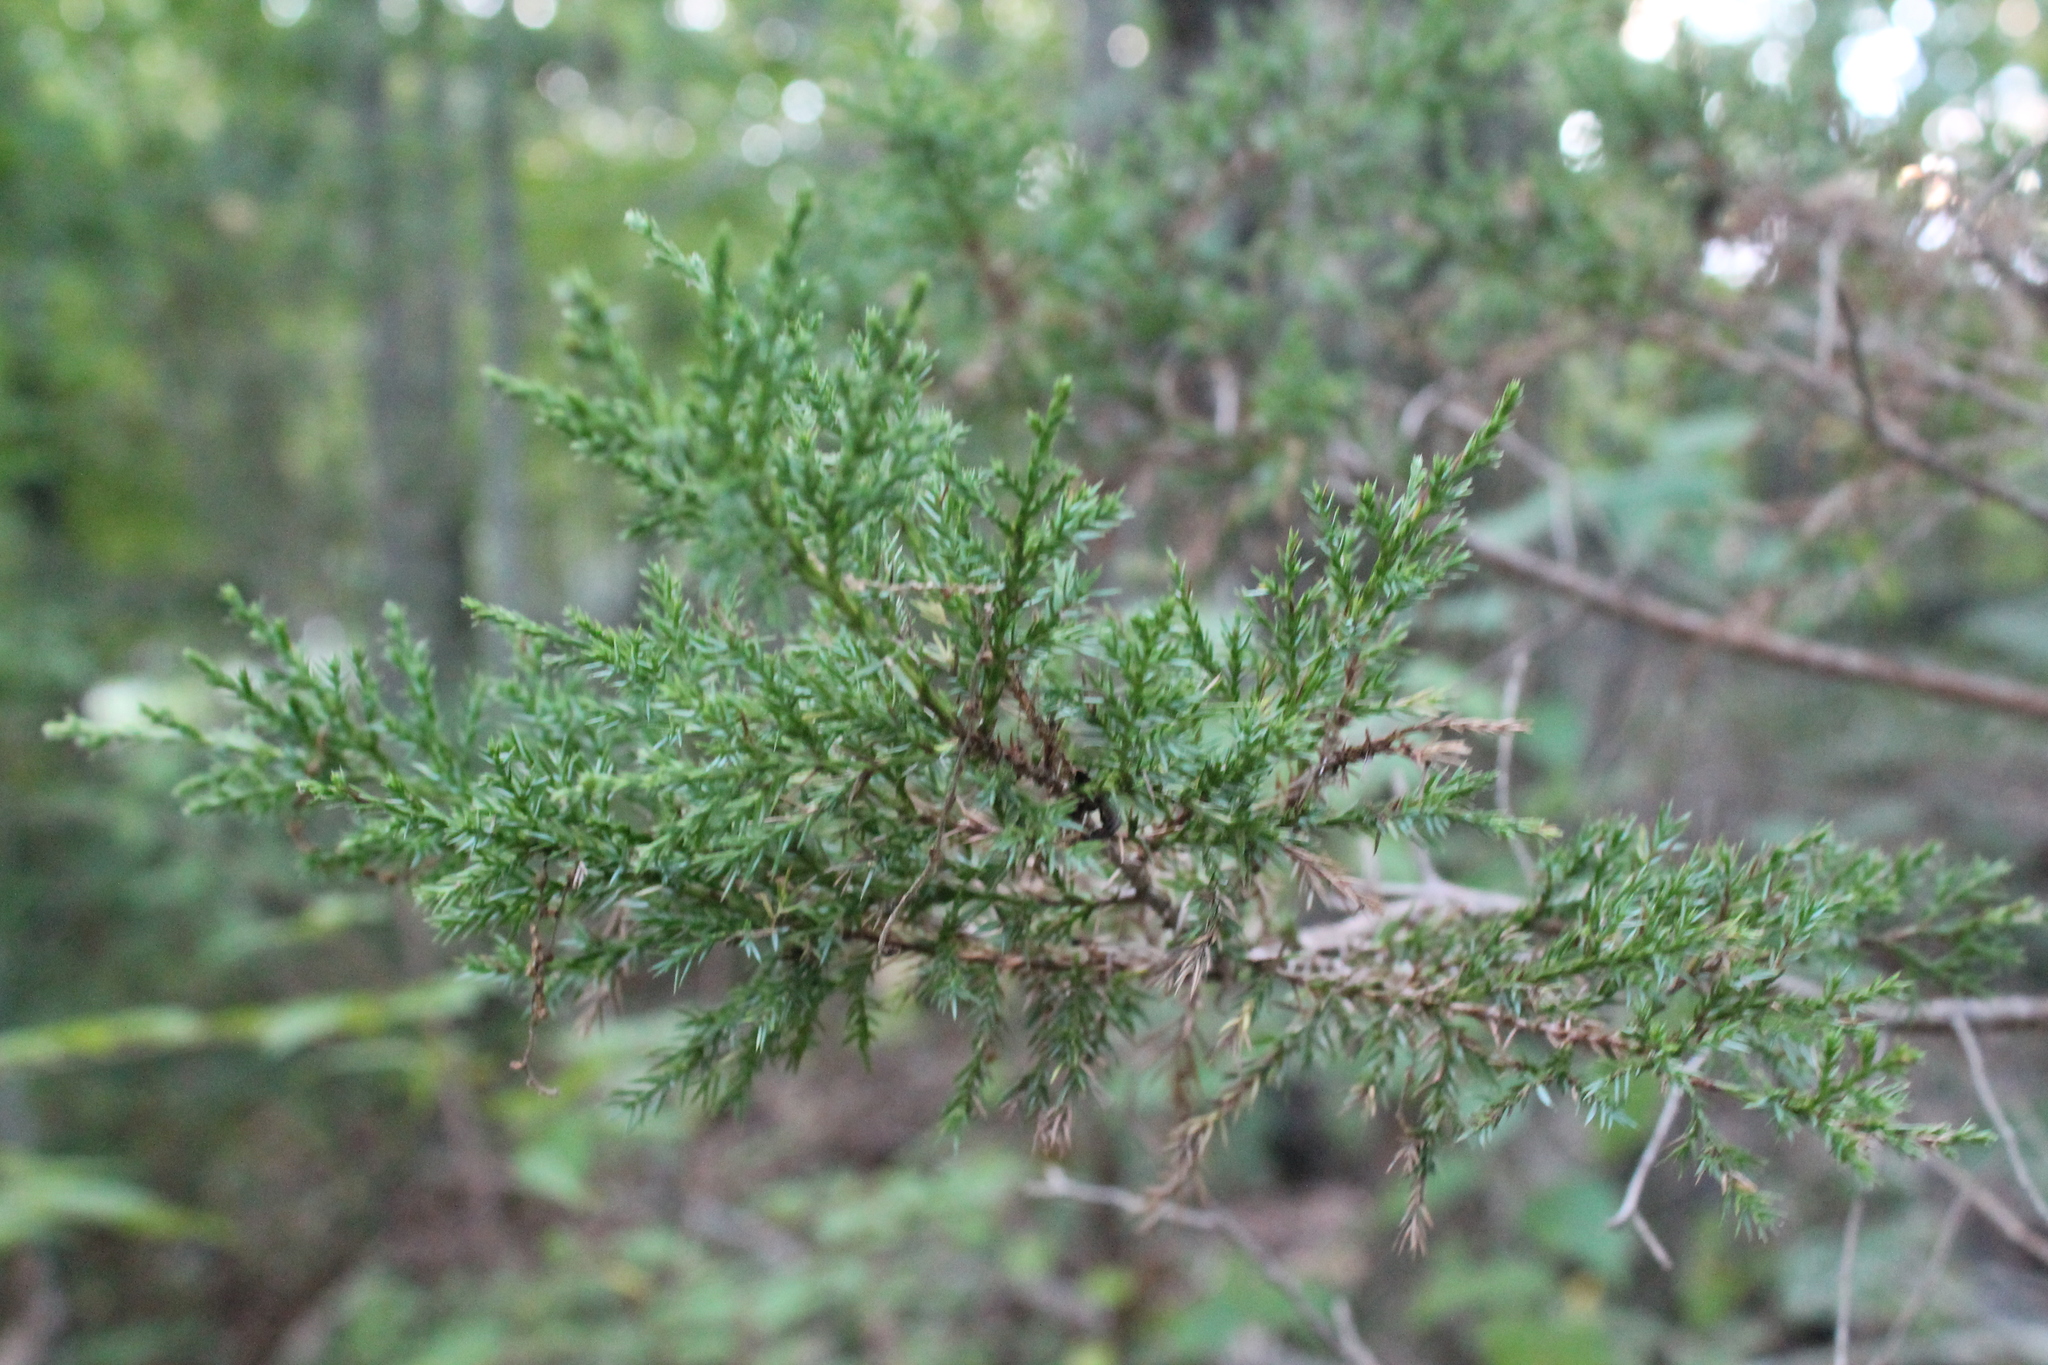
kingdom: Plantae
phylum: Tracheophyta
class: Pinopsida
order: Pinales
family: Cupressaceae
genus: Juniperus
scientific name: Juniperus virginiana
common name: Red juniper
